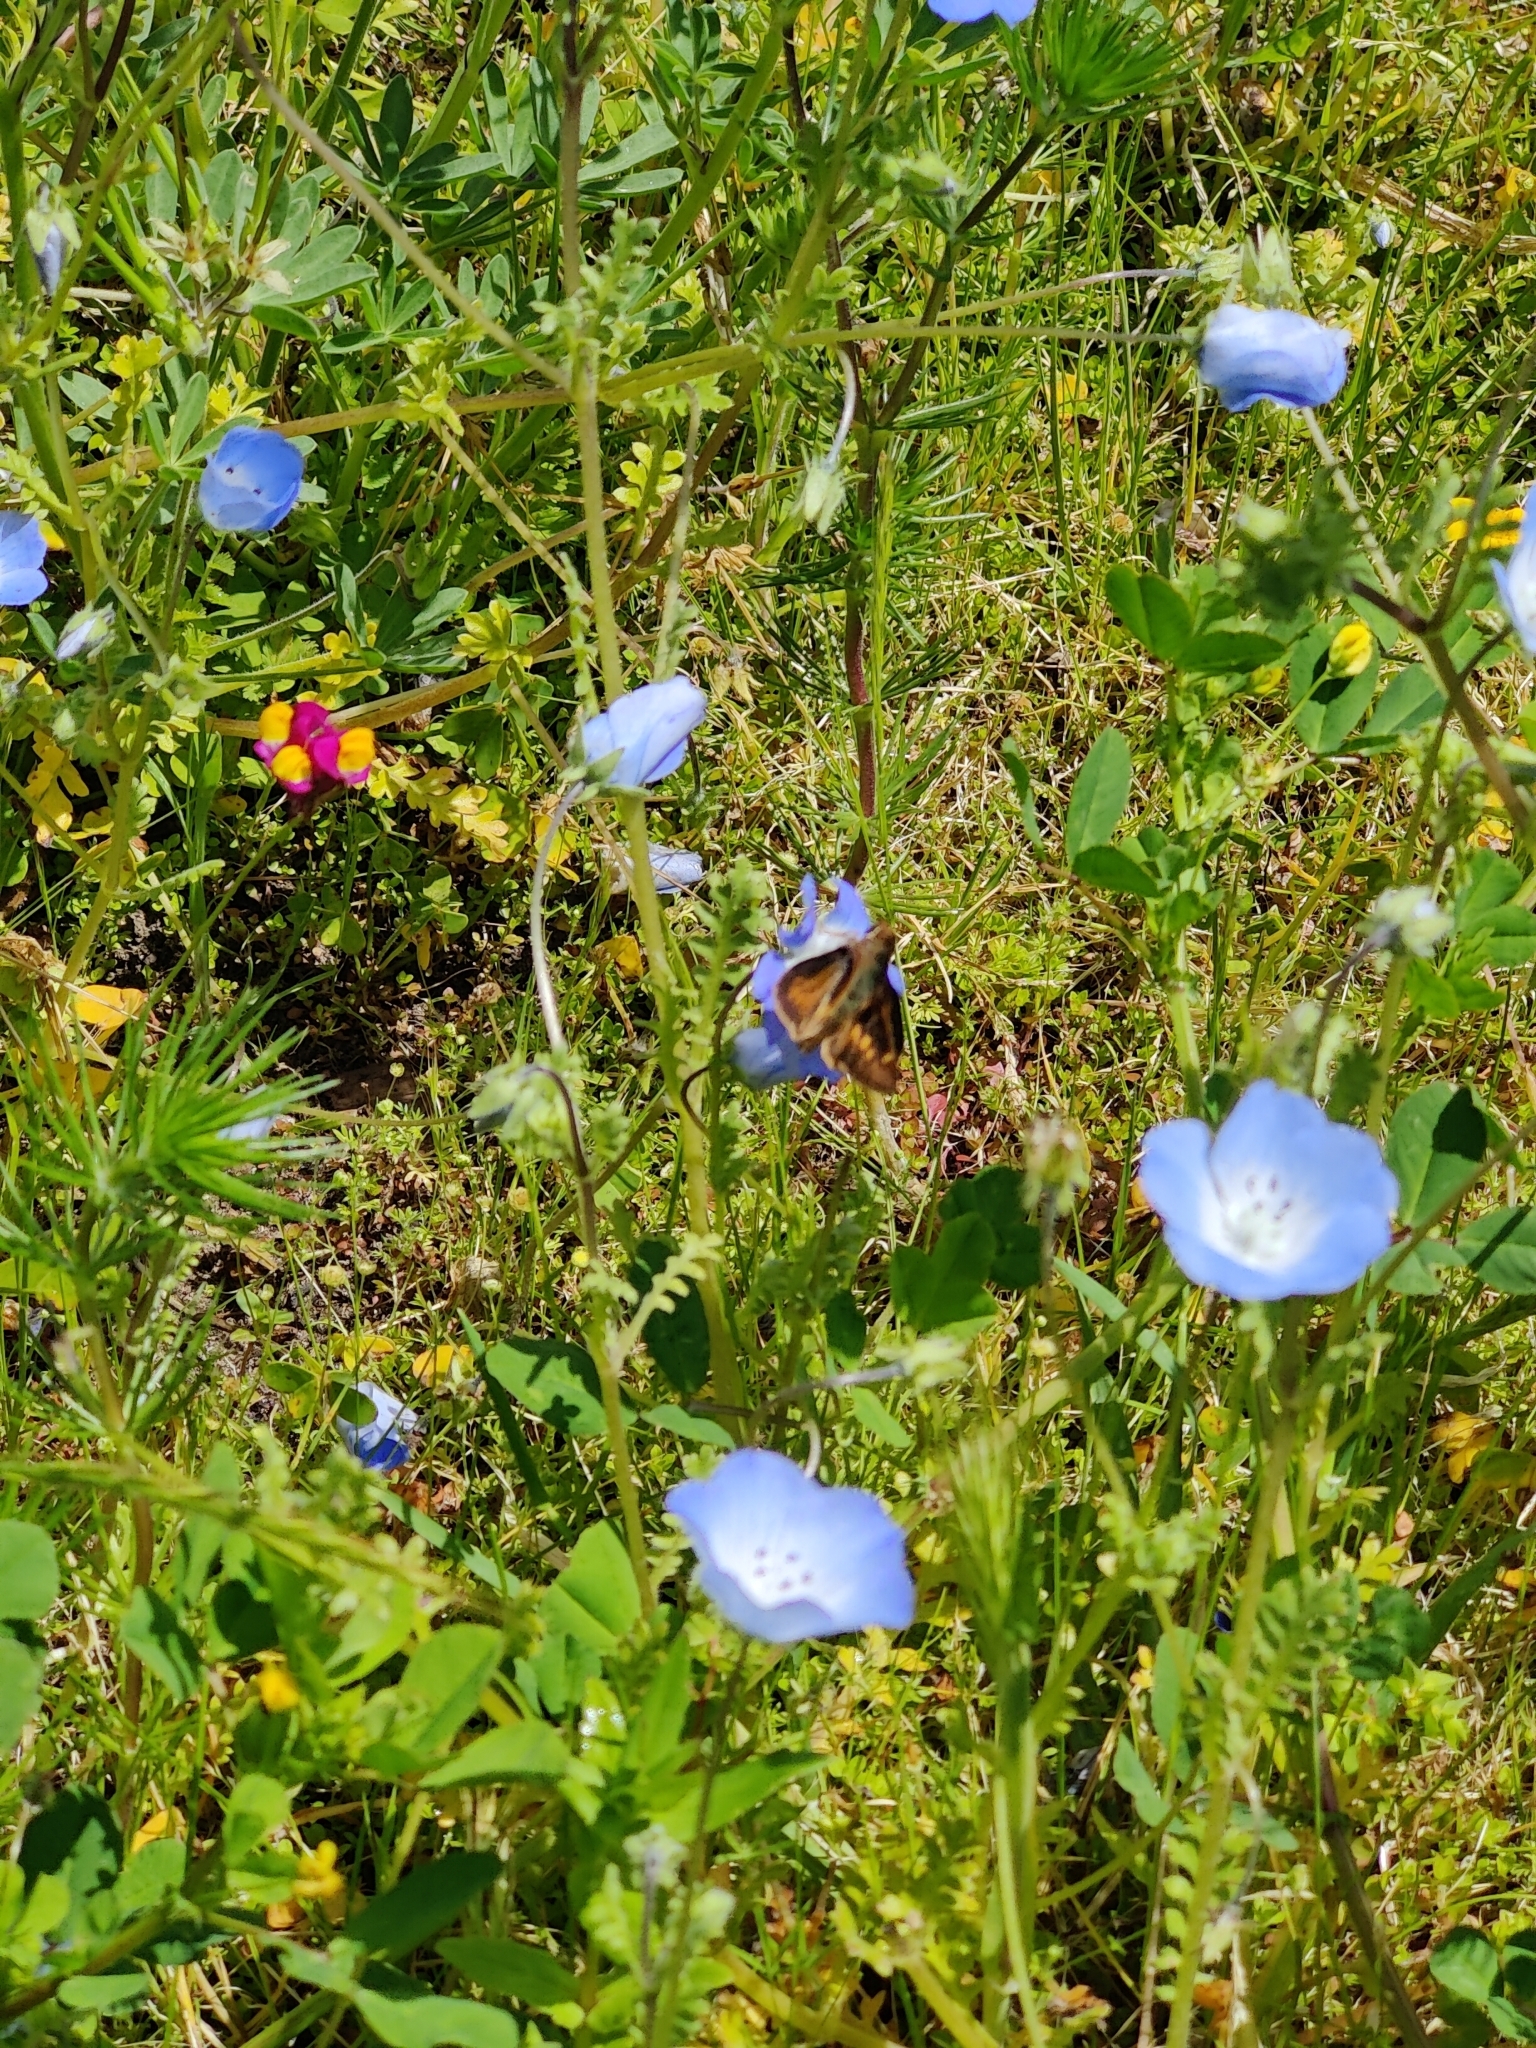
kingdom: Animalia
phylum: Arthropoda
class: Insecta
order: Lepidoptera
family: Hesperiidae
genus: Lon
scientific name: Lon melane
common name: Umber skipper
